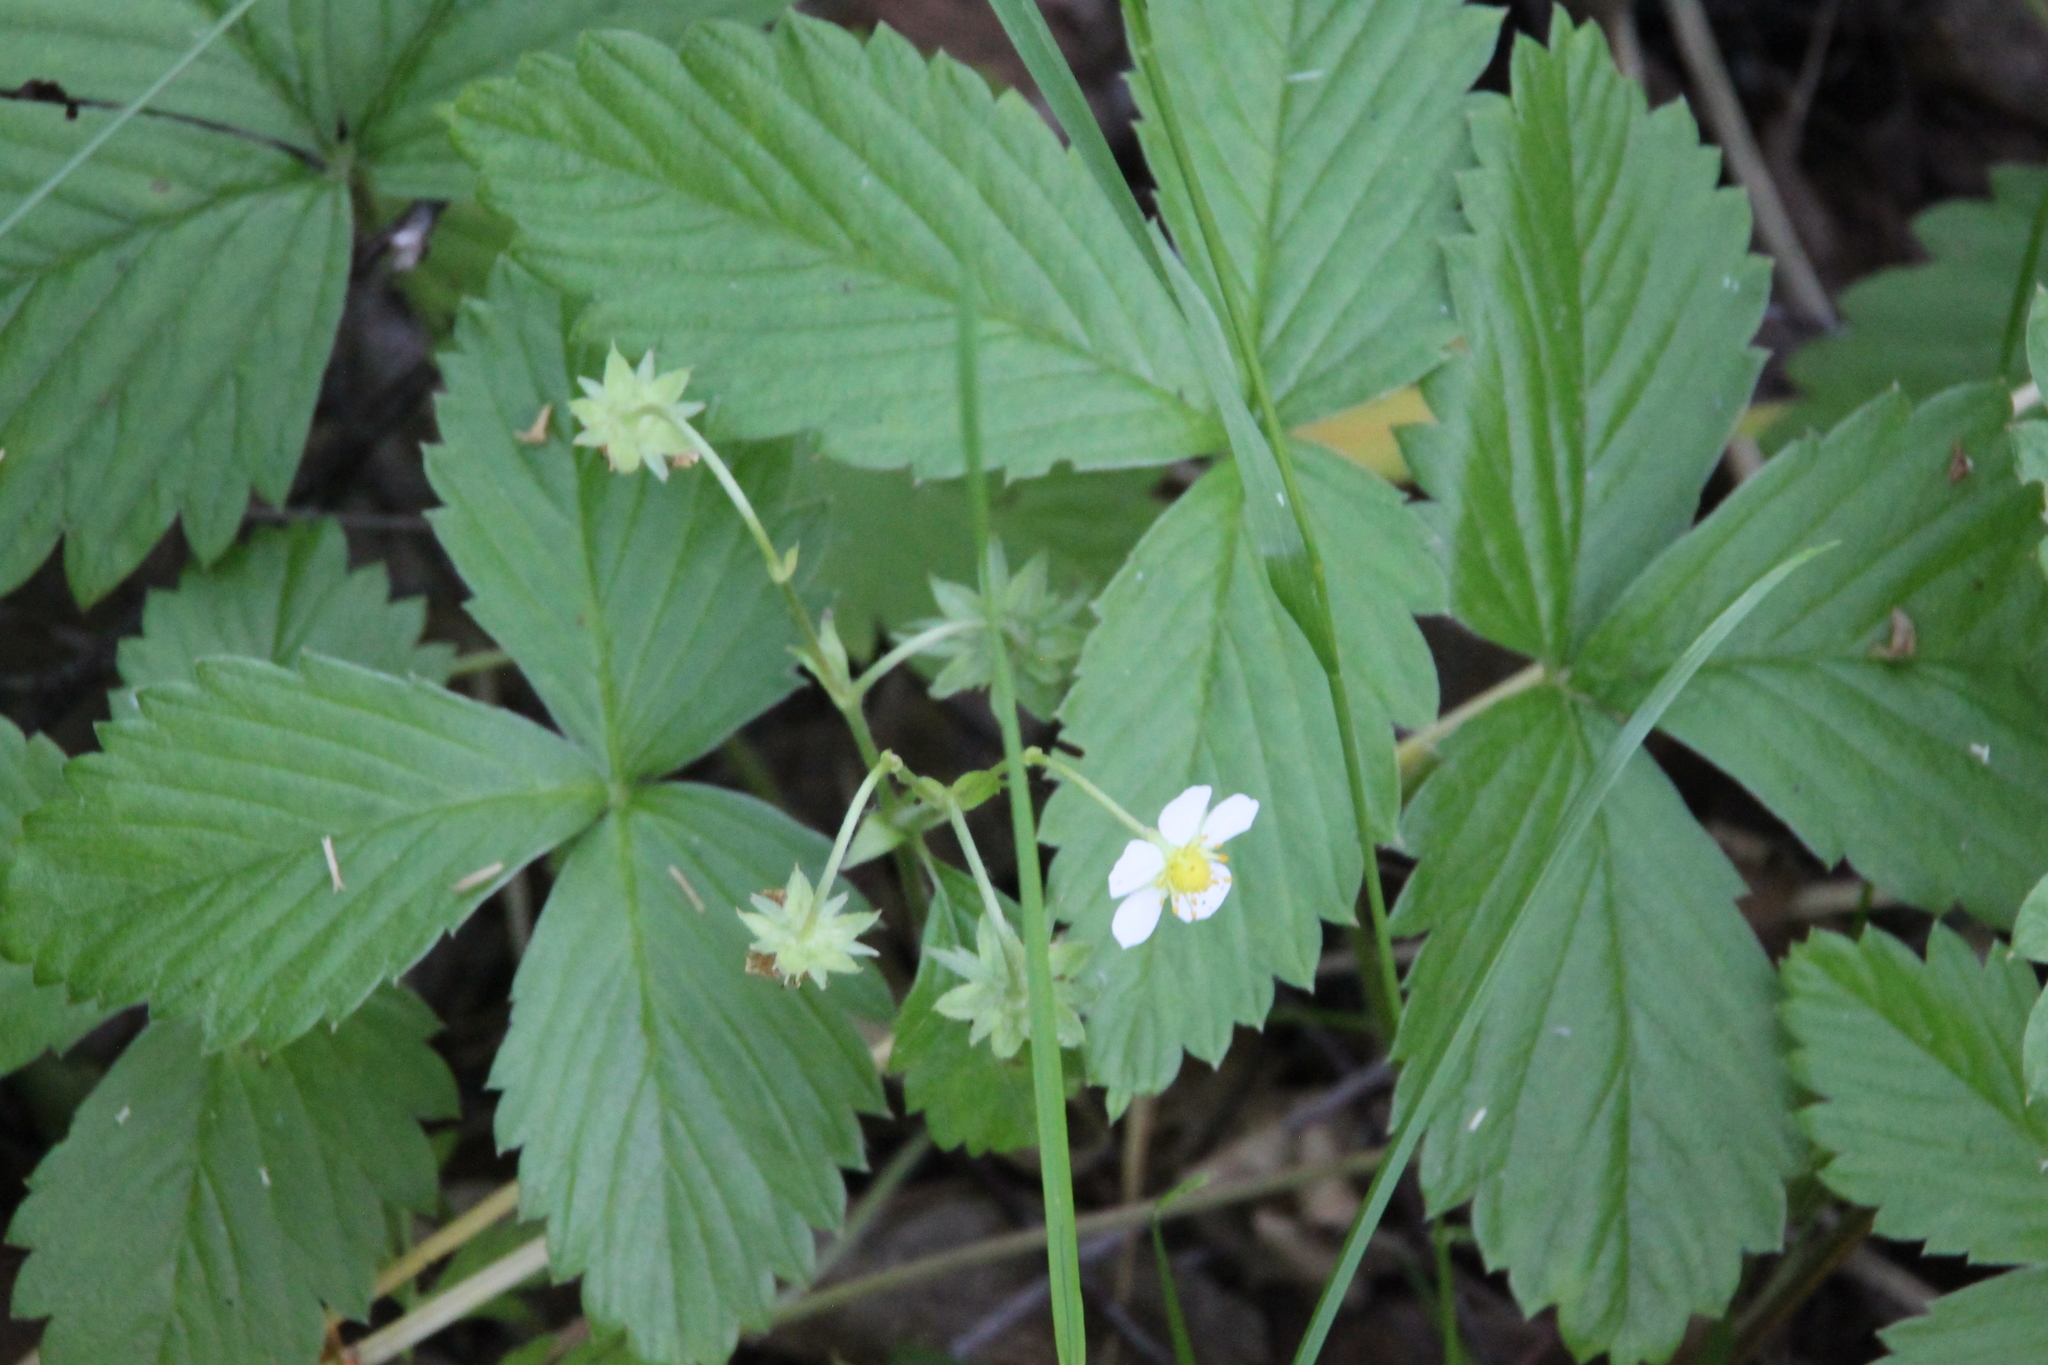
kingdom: Plantae
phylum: Tracheophyta
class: Magnoliopsida
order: Rosales
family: Rosaceae
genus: Fragaria
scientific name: Fragaria vesca
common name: Wild strawberry
